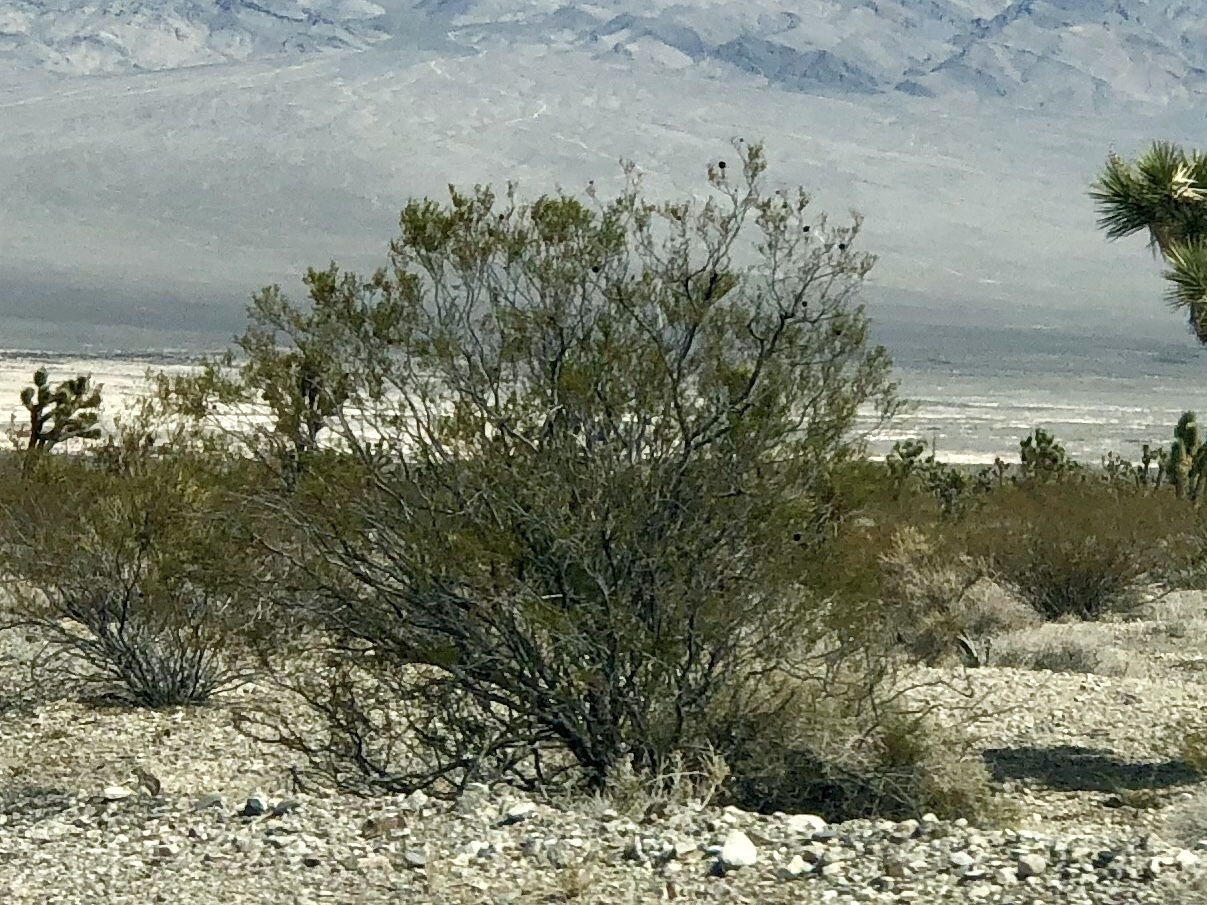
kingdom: Plantae
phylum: Tracheophyta
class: Magnoliopsida
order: Zygophyllales
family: Zygophyllaceae
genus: Larrea
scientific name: Larrea tridentata
